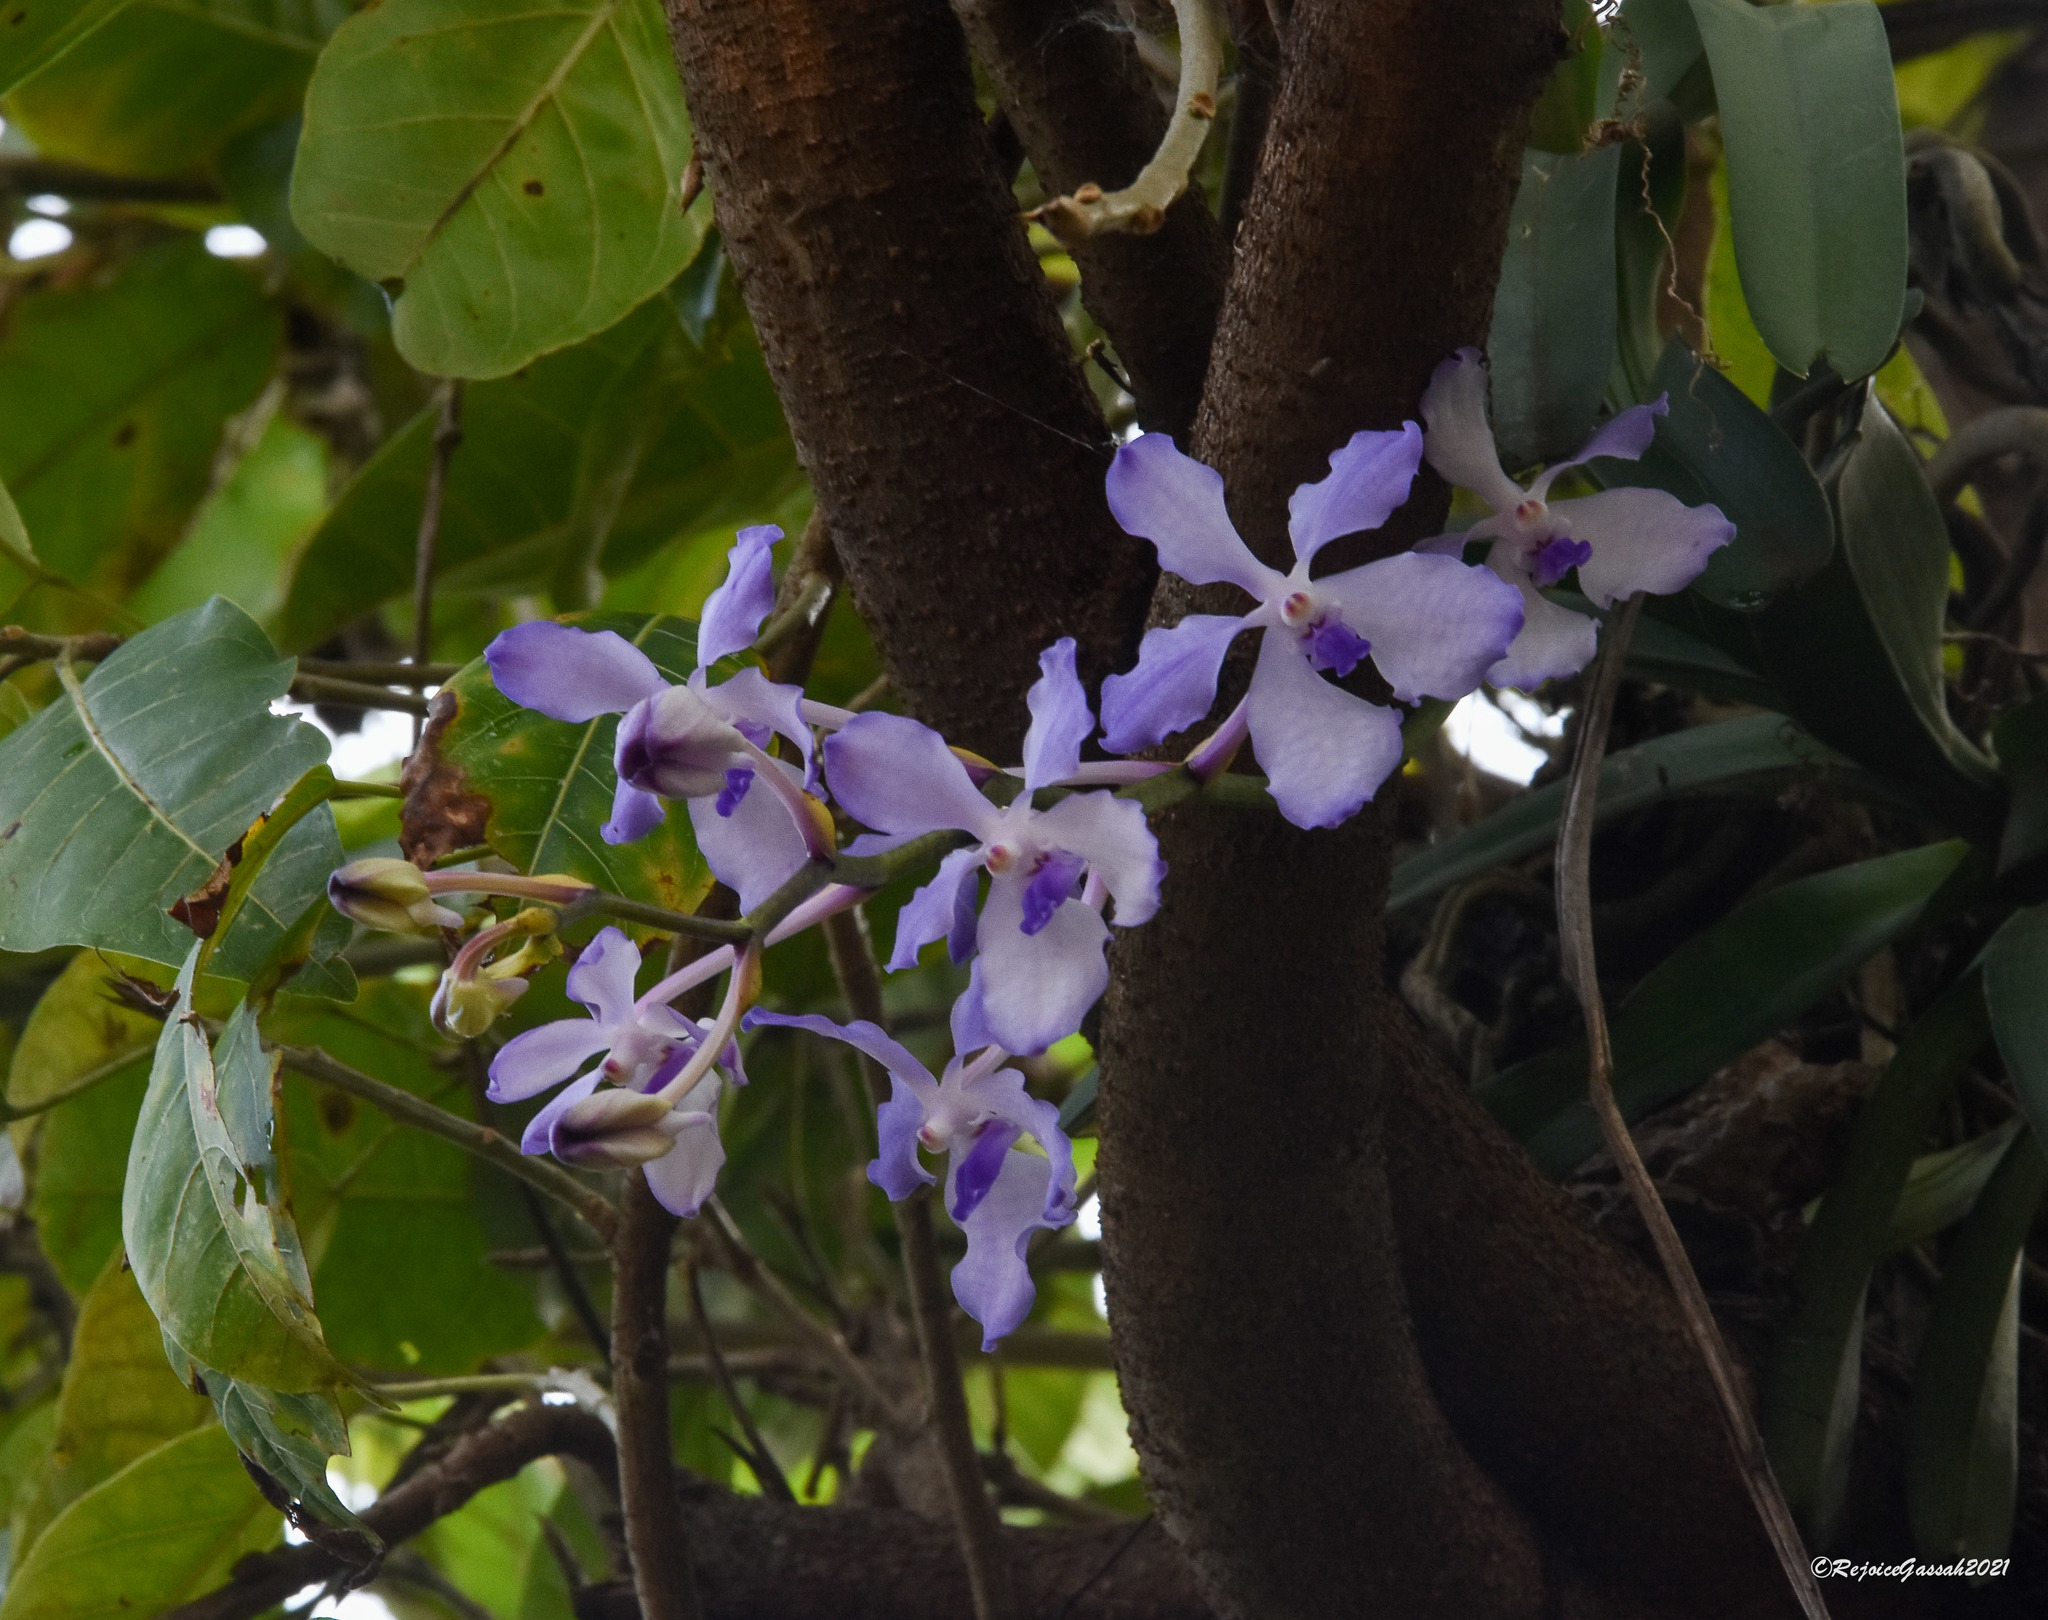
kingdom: Plantae
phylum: Tracheophyta
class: Liliopsida
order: Asparagales
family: Orchidaceae
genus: Vanda
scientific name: Vanda coerulea
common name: Blue orchid
